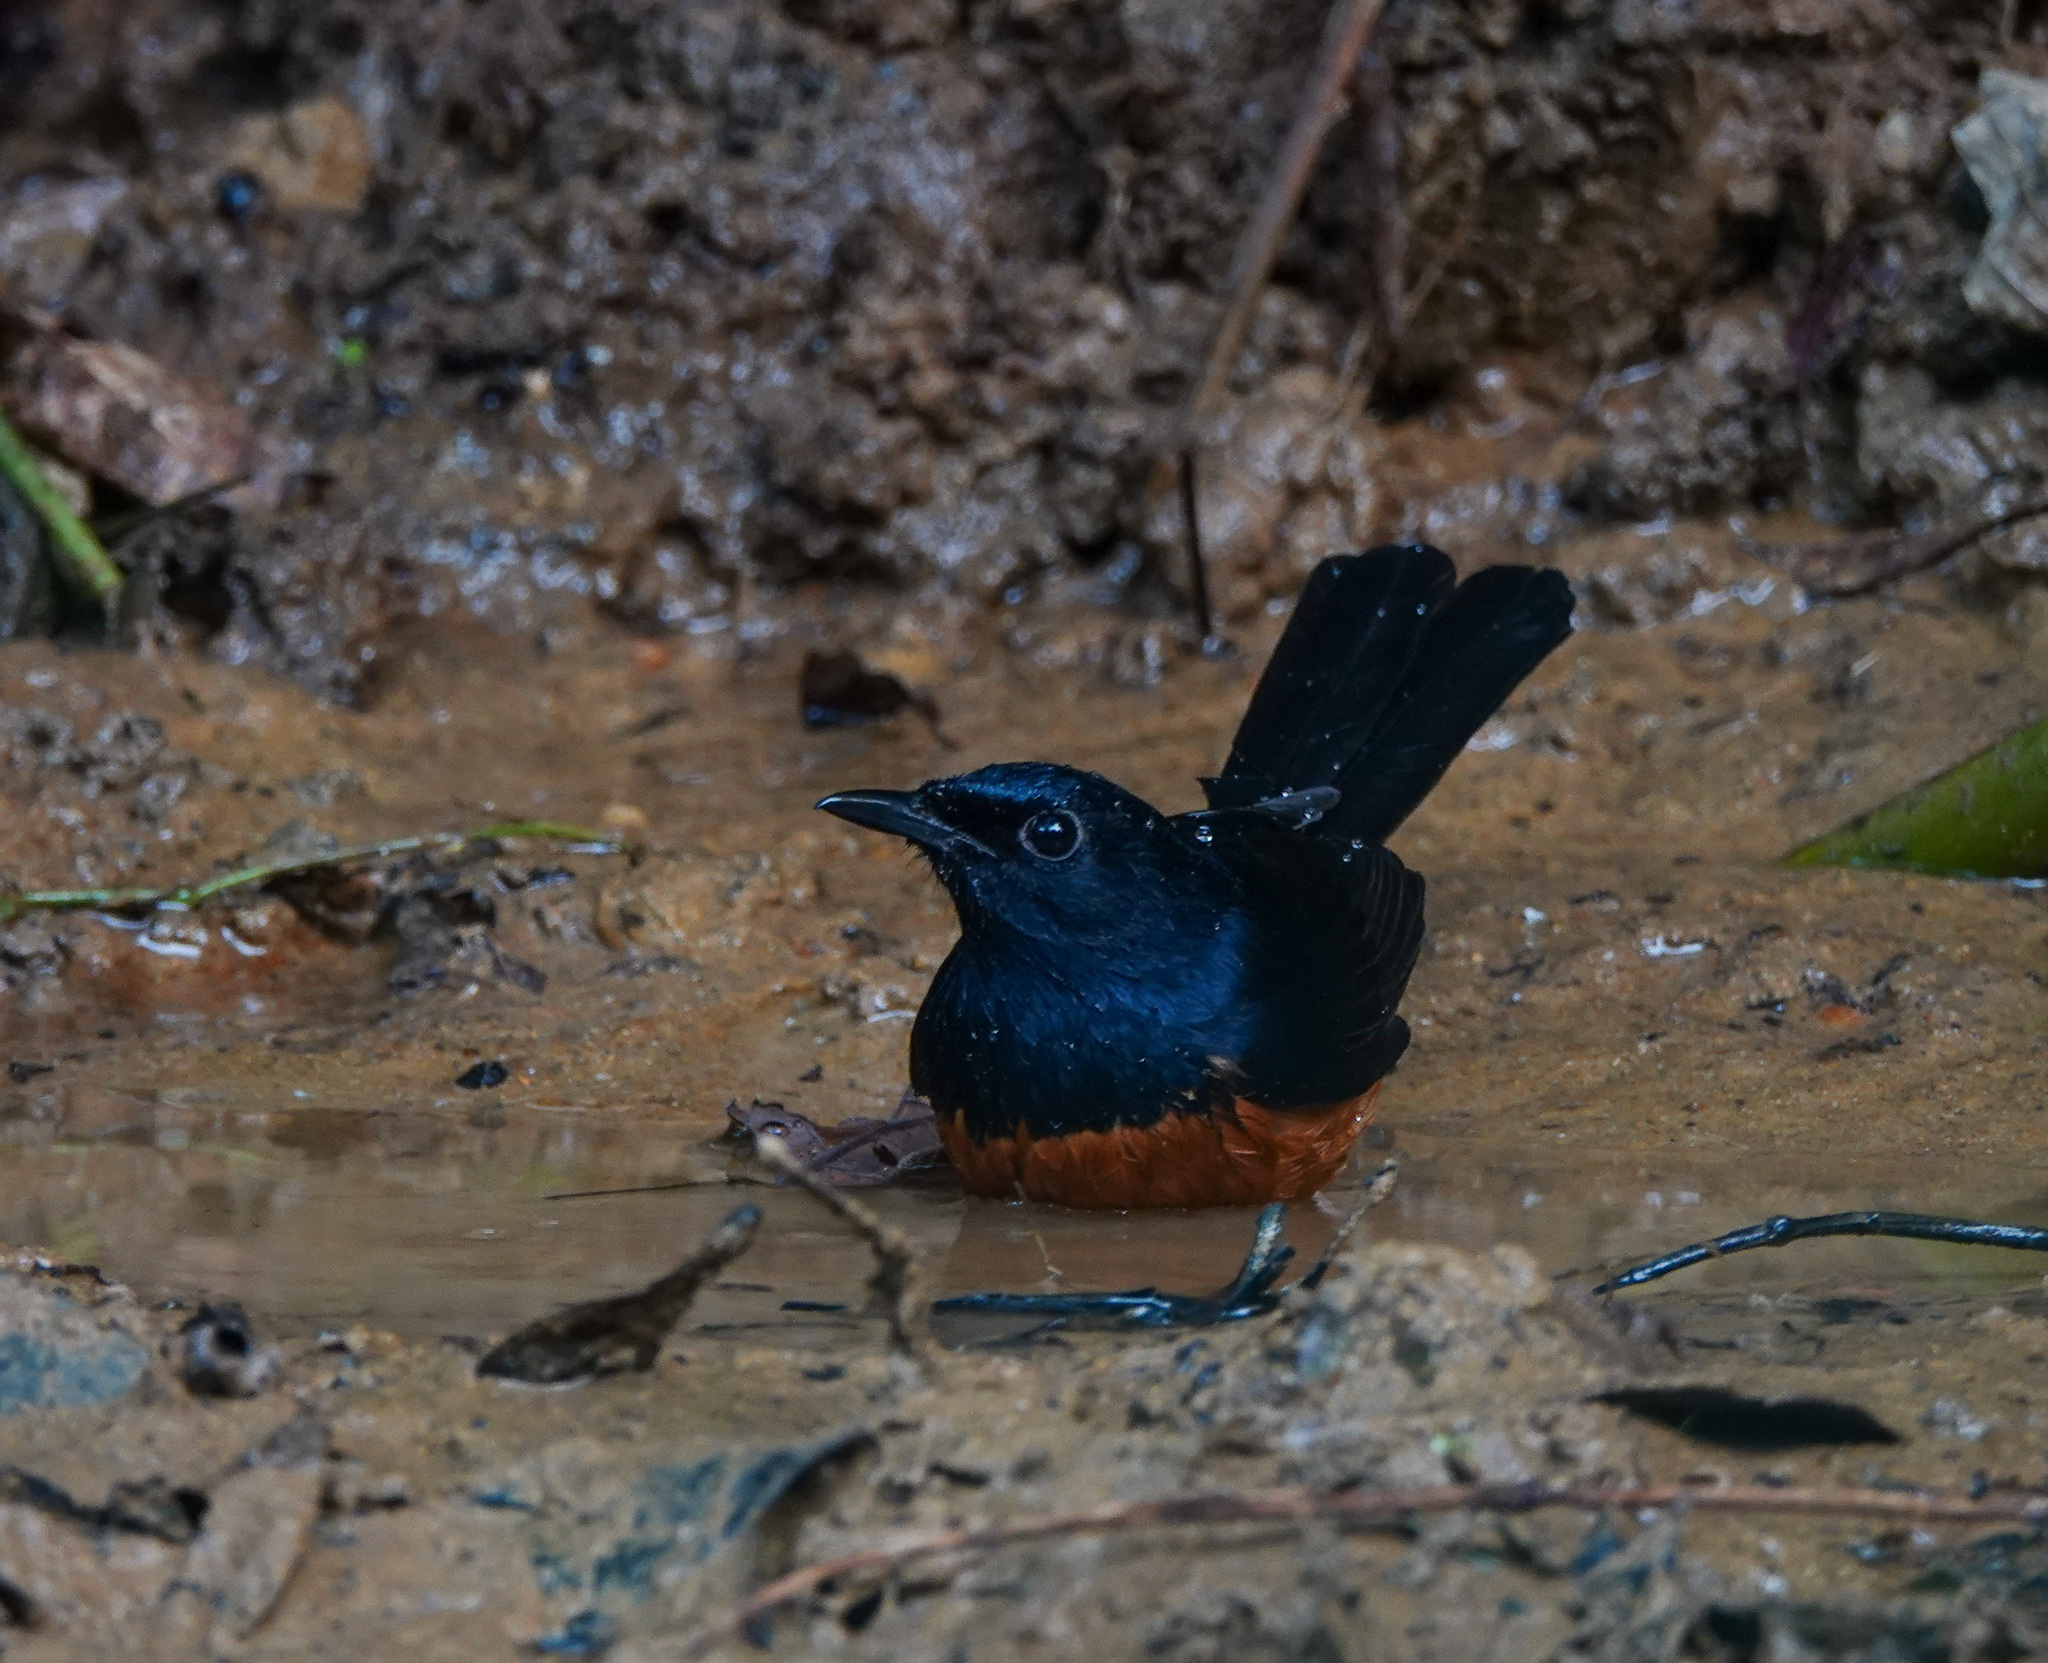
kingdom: Animalia
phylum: Chordata
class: Aves
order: Passeriformes
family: Muscicapidae
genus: Copsychus
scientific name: Copsychus malabaricus
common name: White-rumped shama
